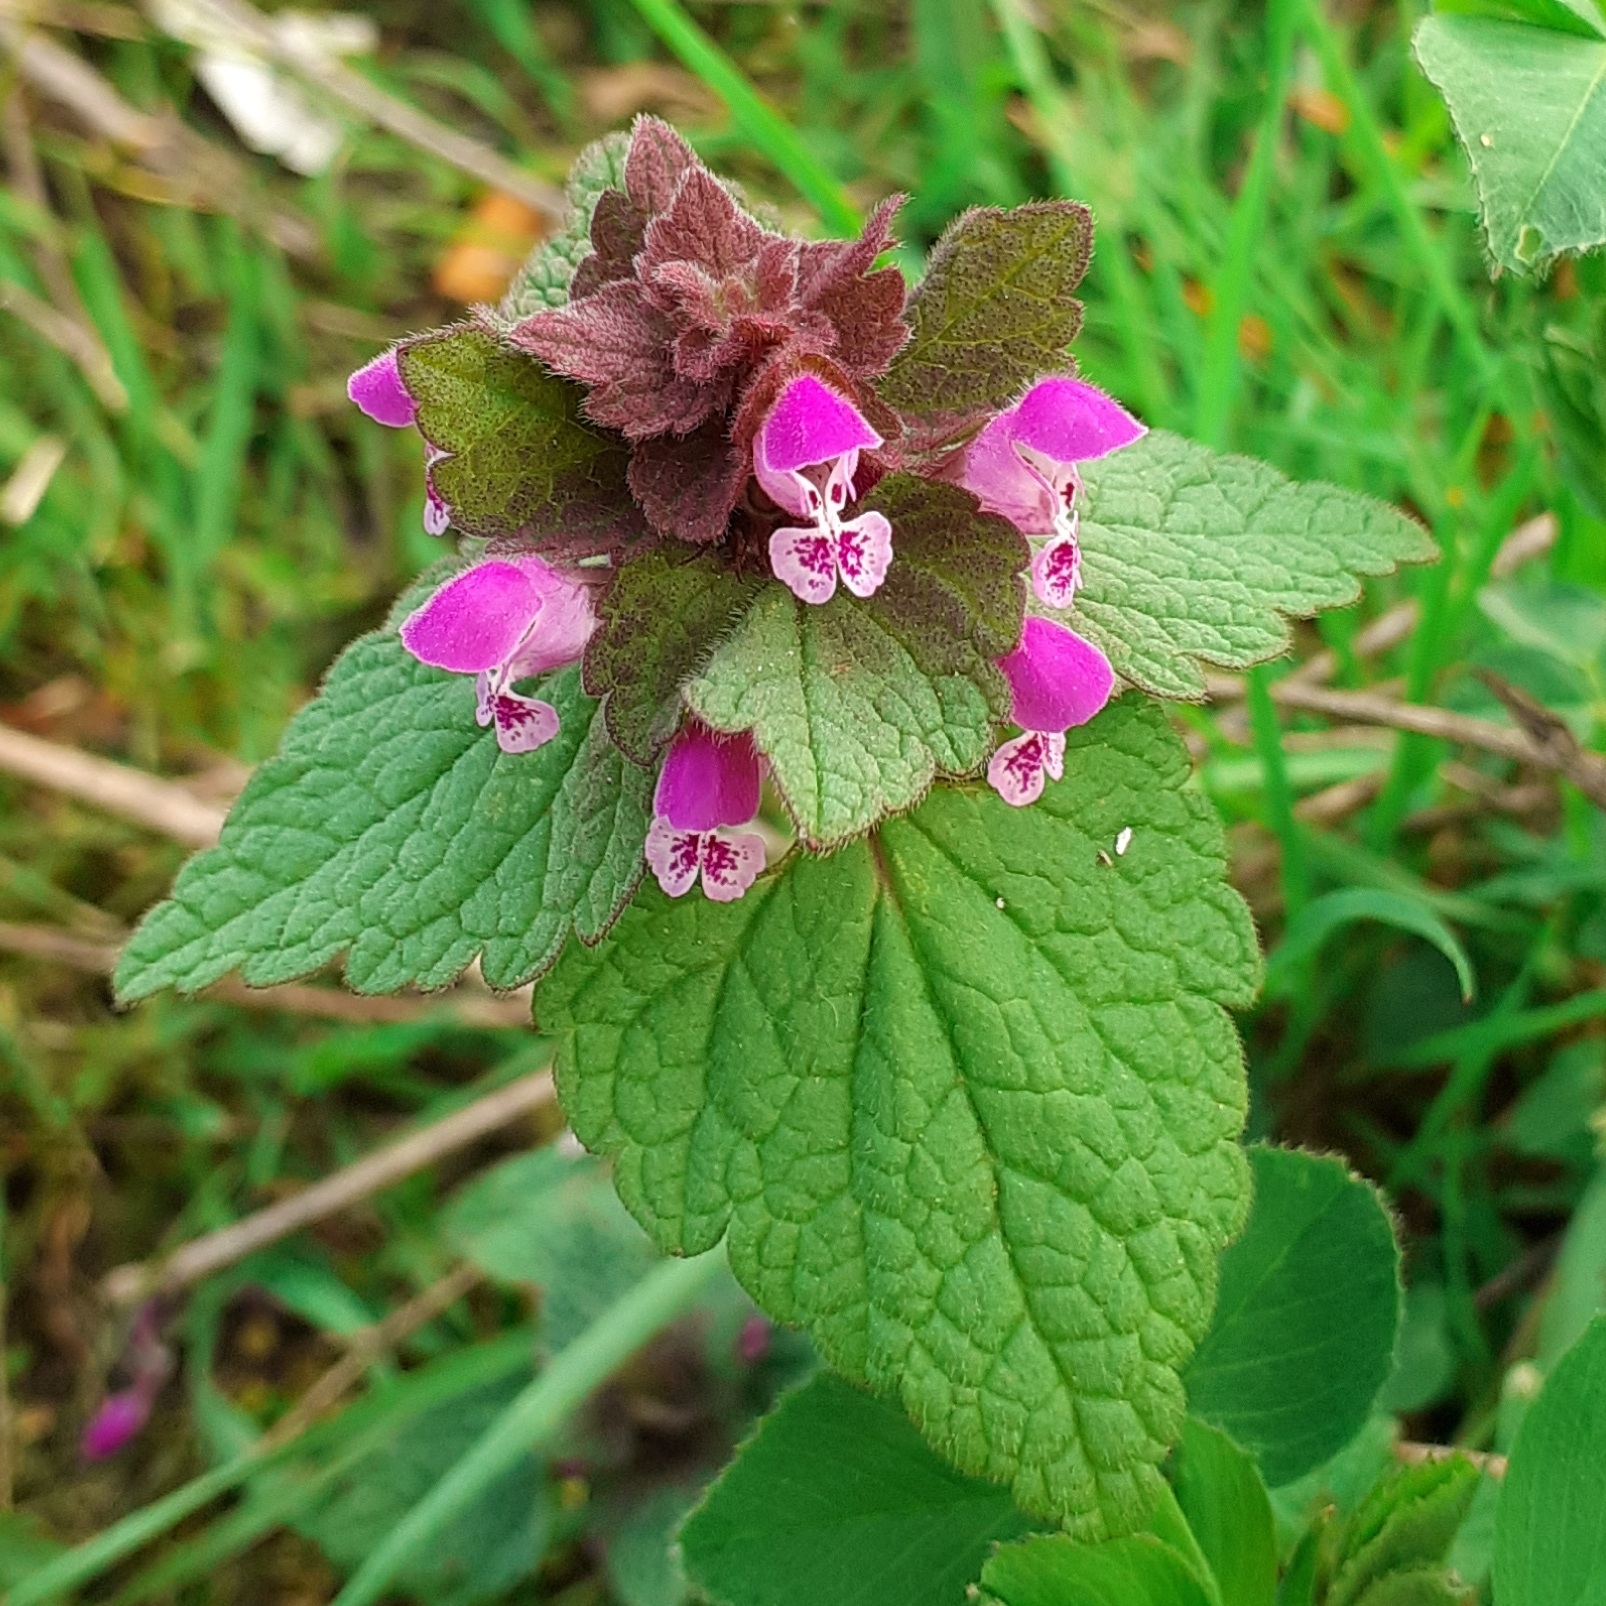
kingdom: Plantae
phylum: Tracheophyta
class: Magnoliopsida
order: Lamiales
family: Lamiaceae
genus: Lamium
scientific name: Lamium purpureum
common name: Red dead-nettle
